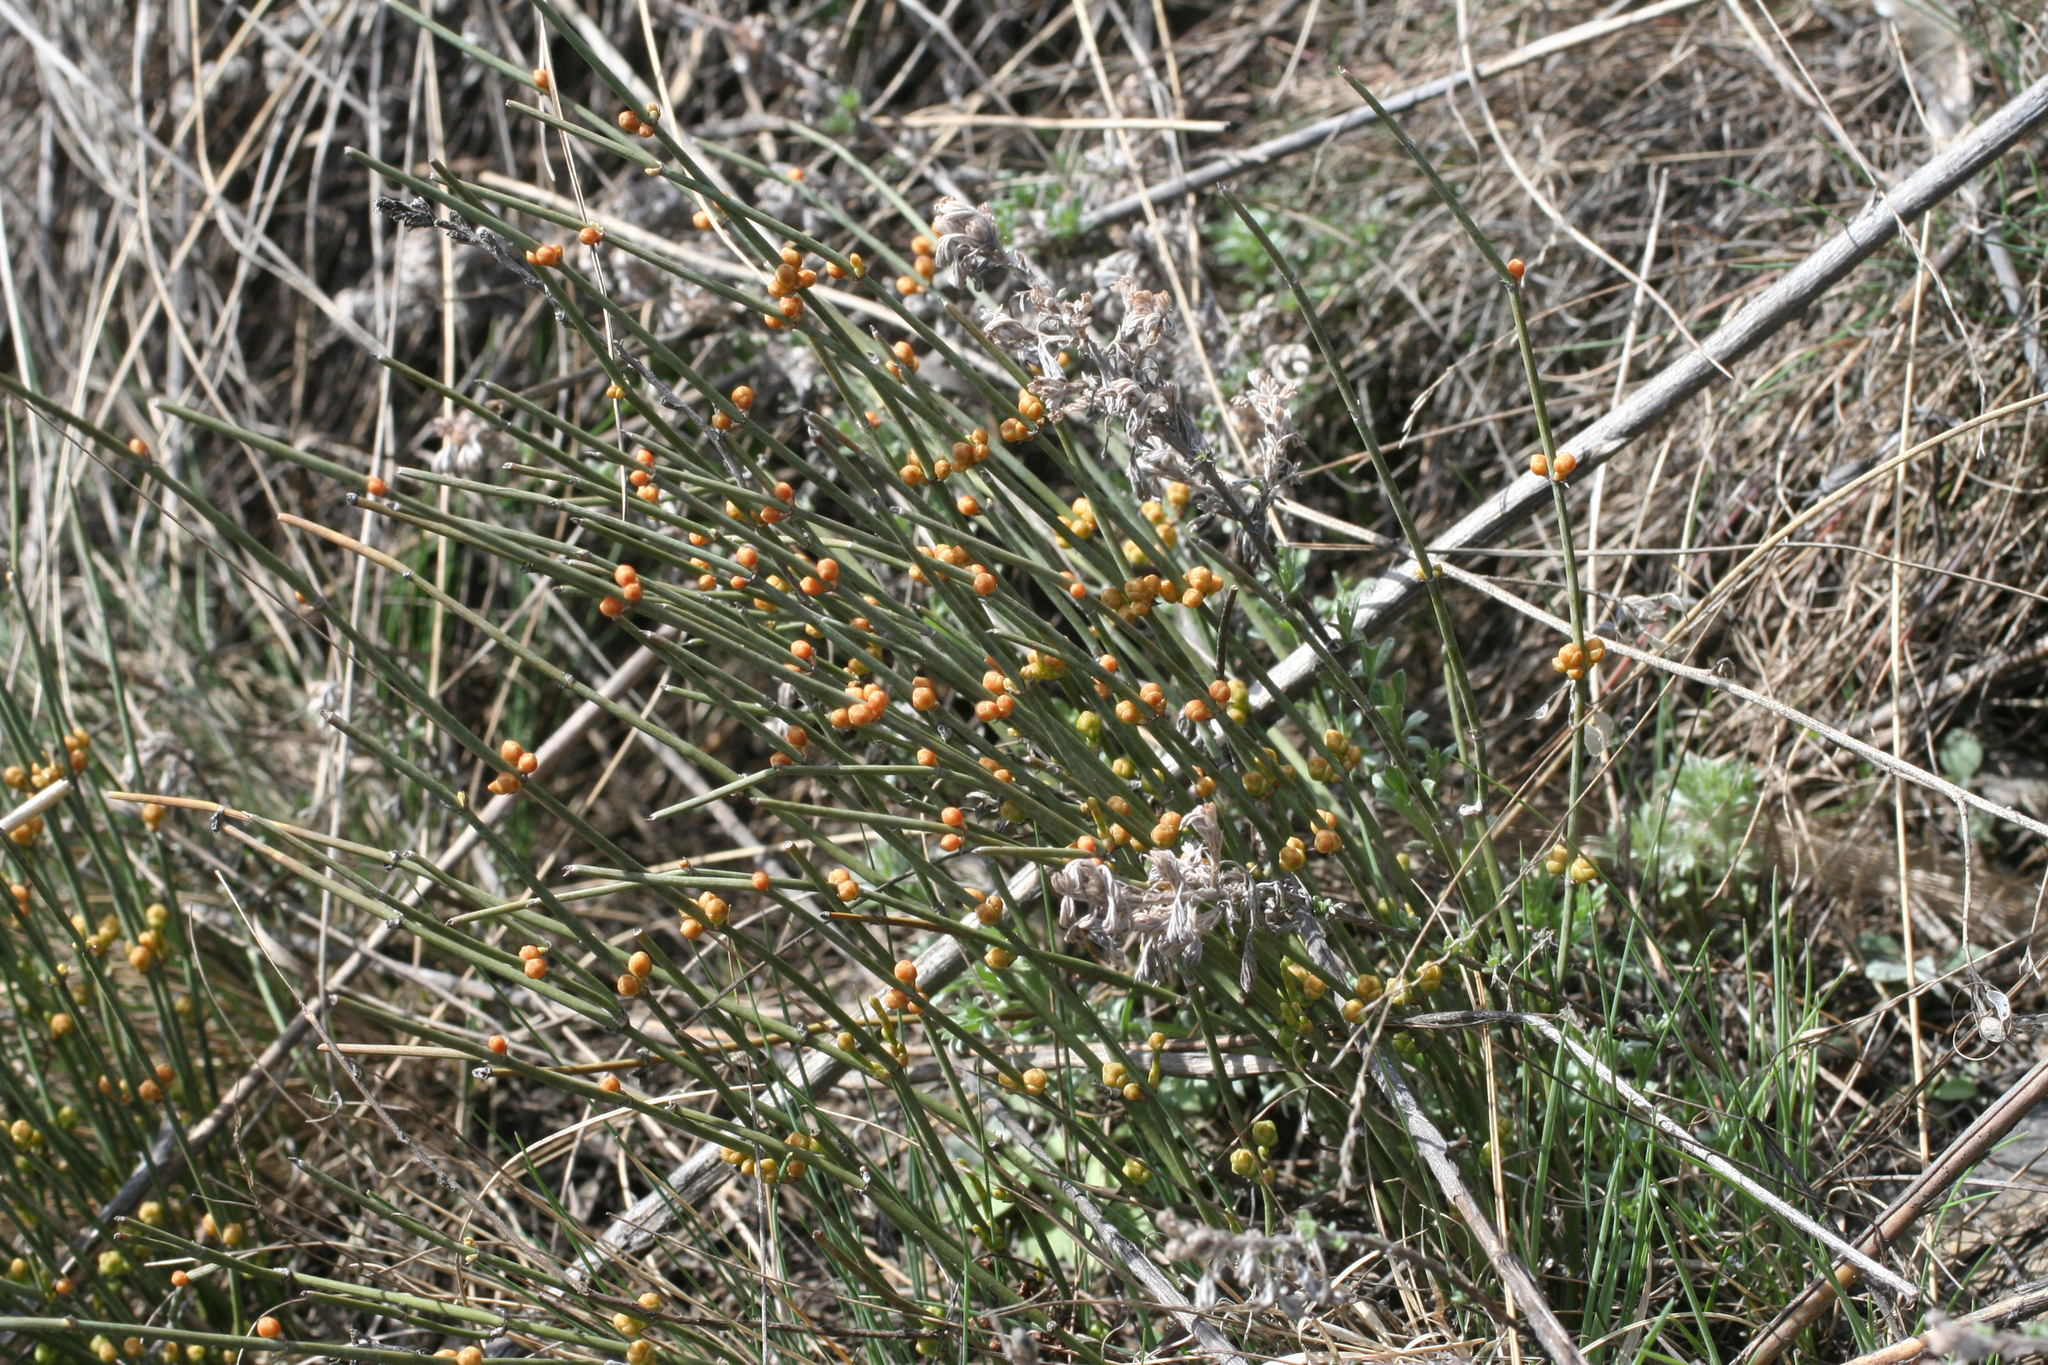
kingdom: Plantae
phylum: Tracheophyta
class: Gnetopsida
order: Ephedrales
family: Ephedraceae
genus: Ephedra
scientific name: Ephedra distachya
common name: Sea grape
